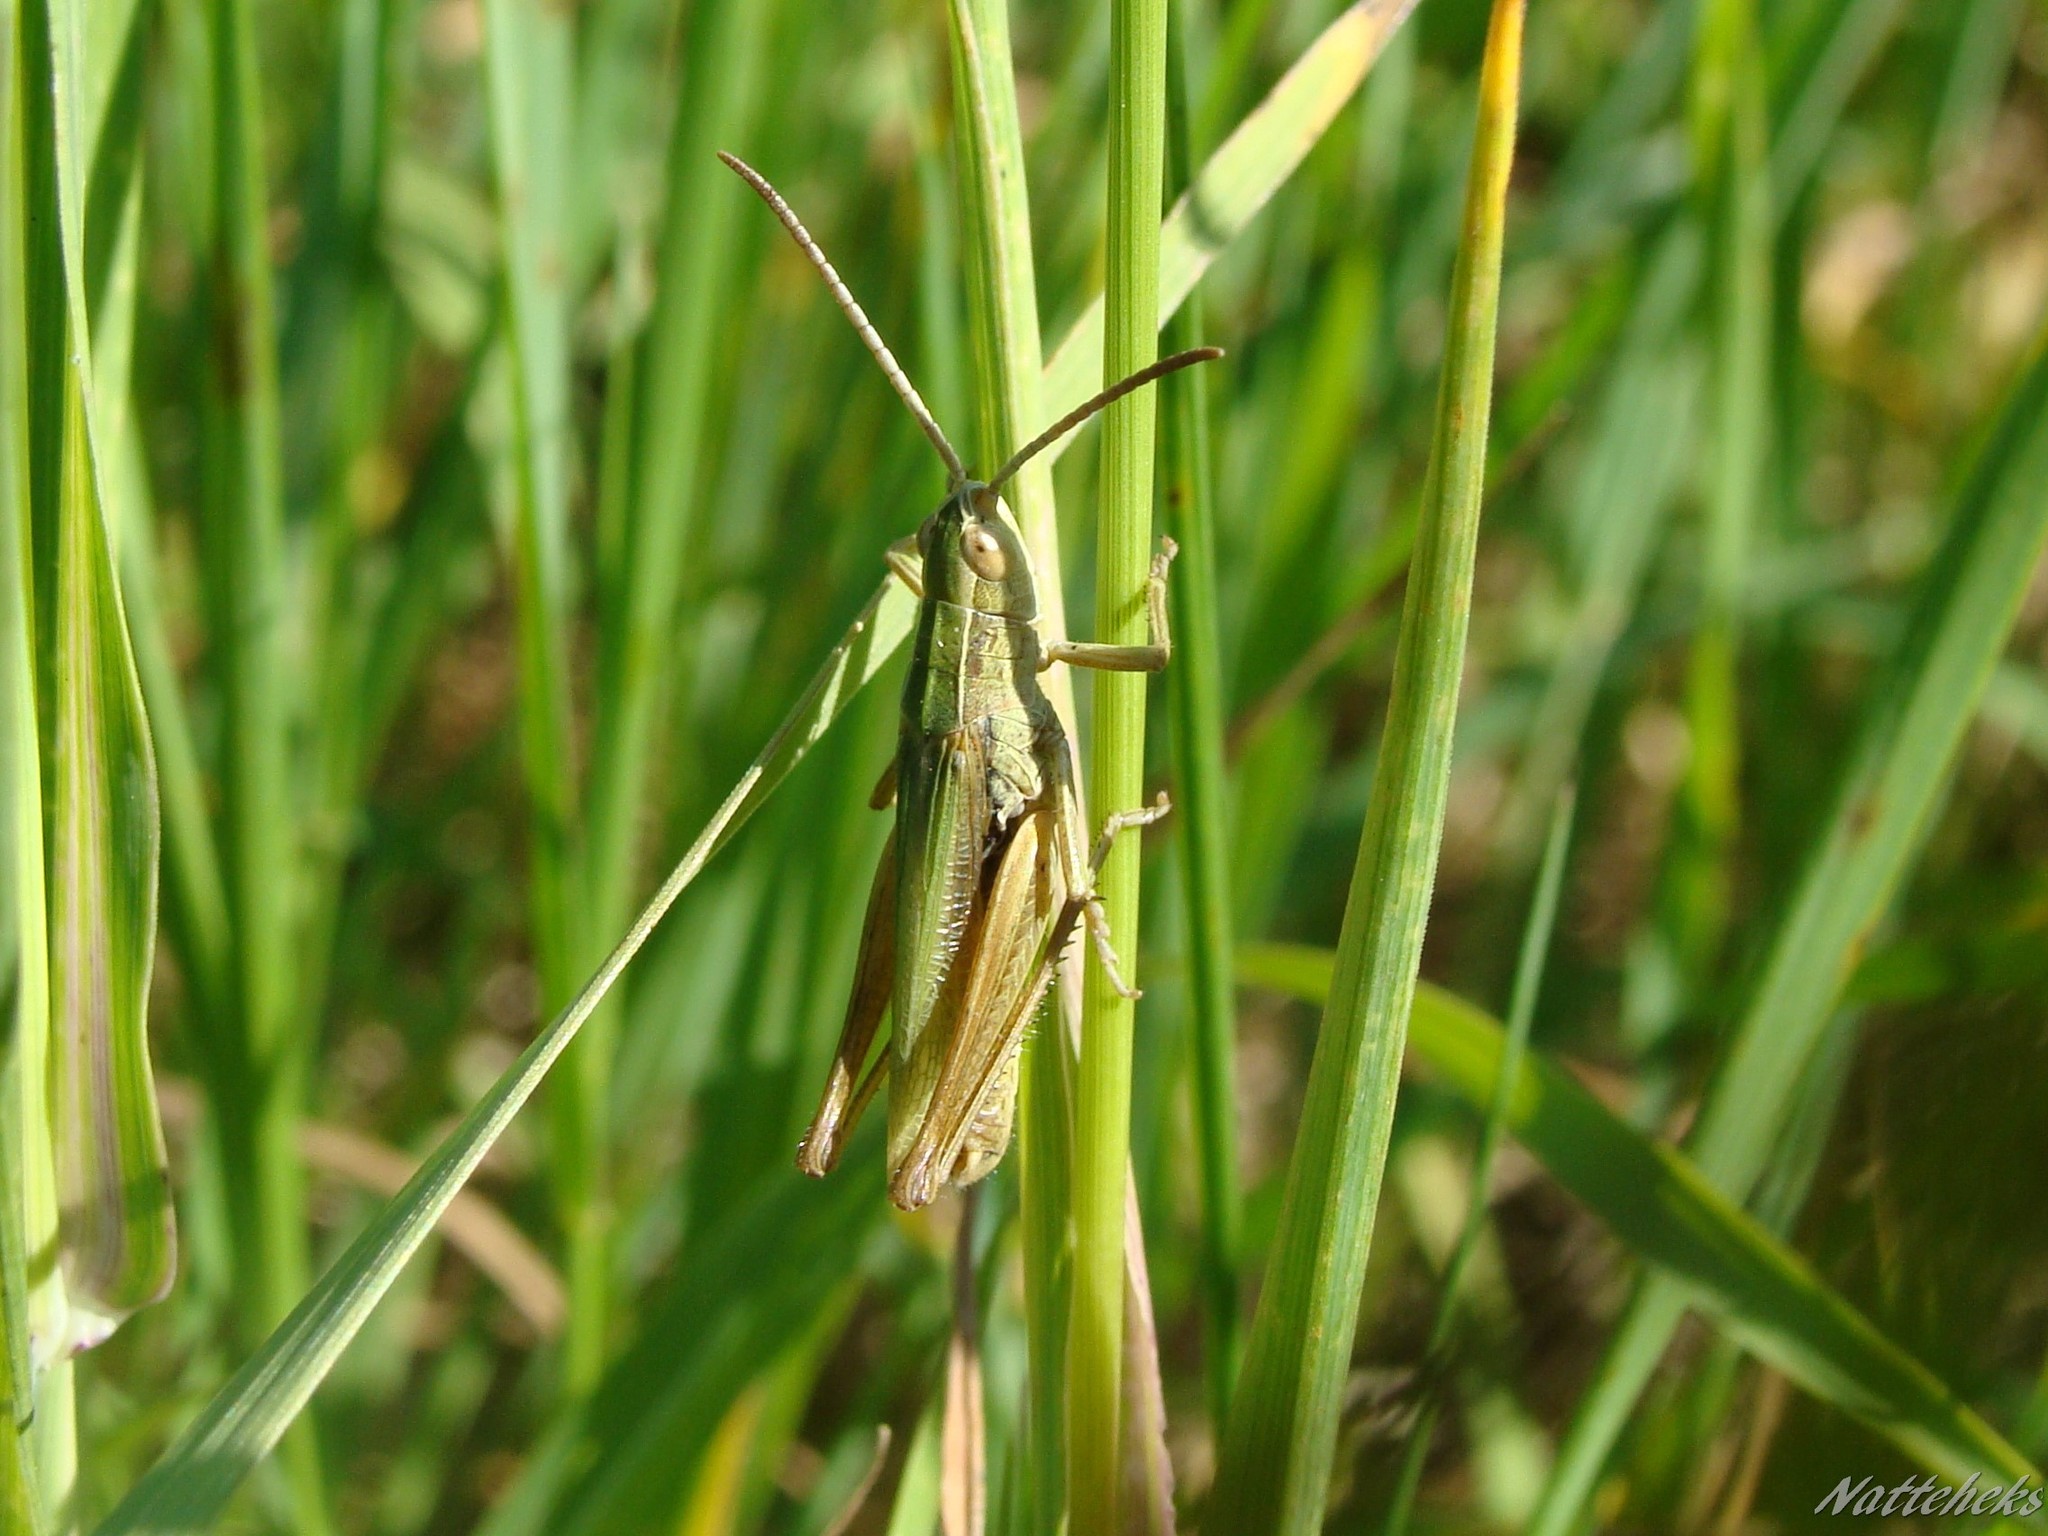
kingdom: Animalia
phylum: Arthropoda
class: Insecta
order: Orthoptera
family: Acrididae
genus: Chorthippus
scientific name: Chorthippus albomarginatus
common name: Lesser marsh grasshopper
